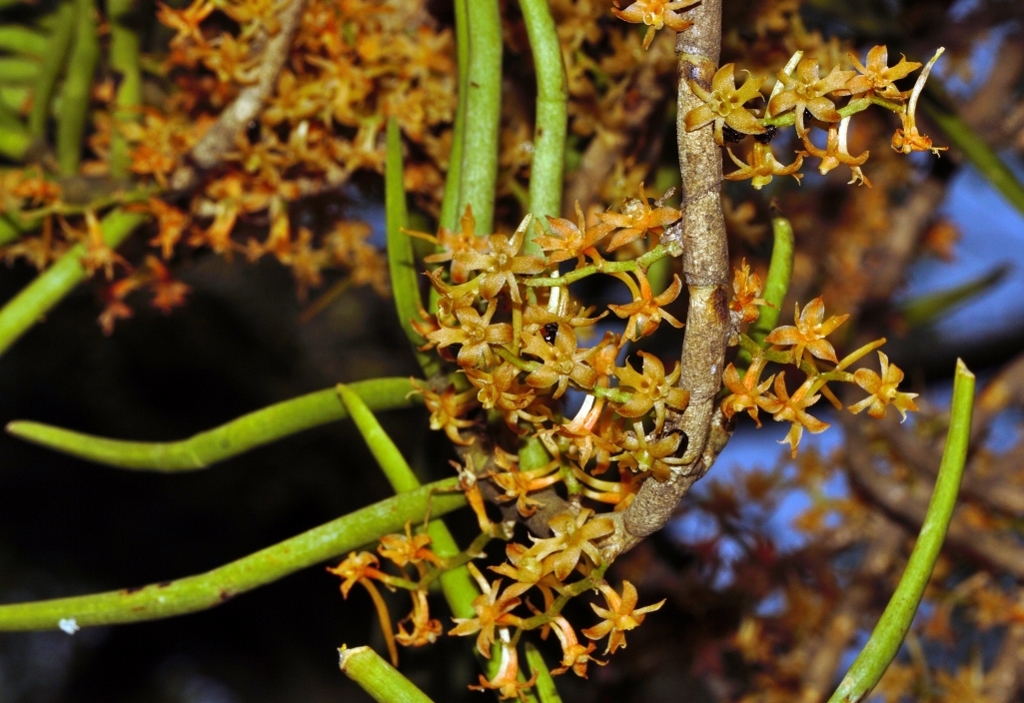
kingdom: Plantae
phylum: Tracheophyta
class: Liliopsida
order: Asparagales
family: Orchidaceae
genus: Tridactyle
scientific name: Tridactyle tridentata
